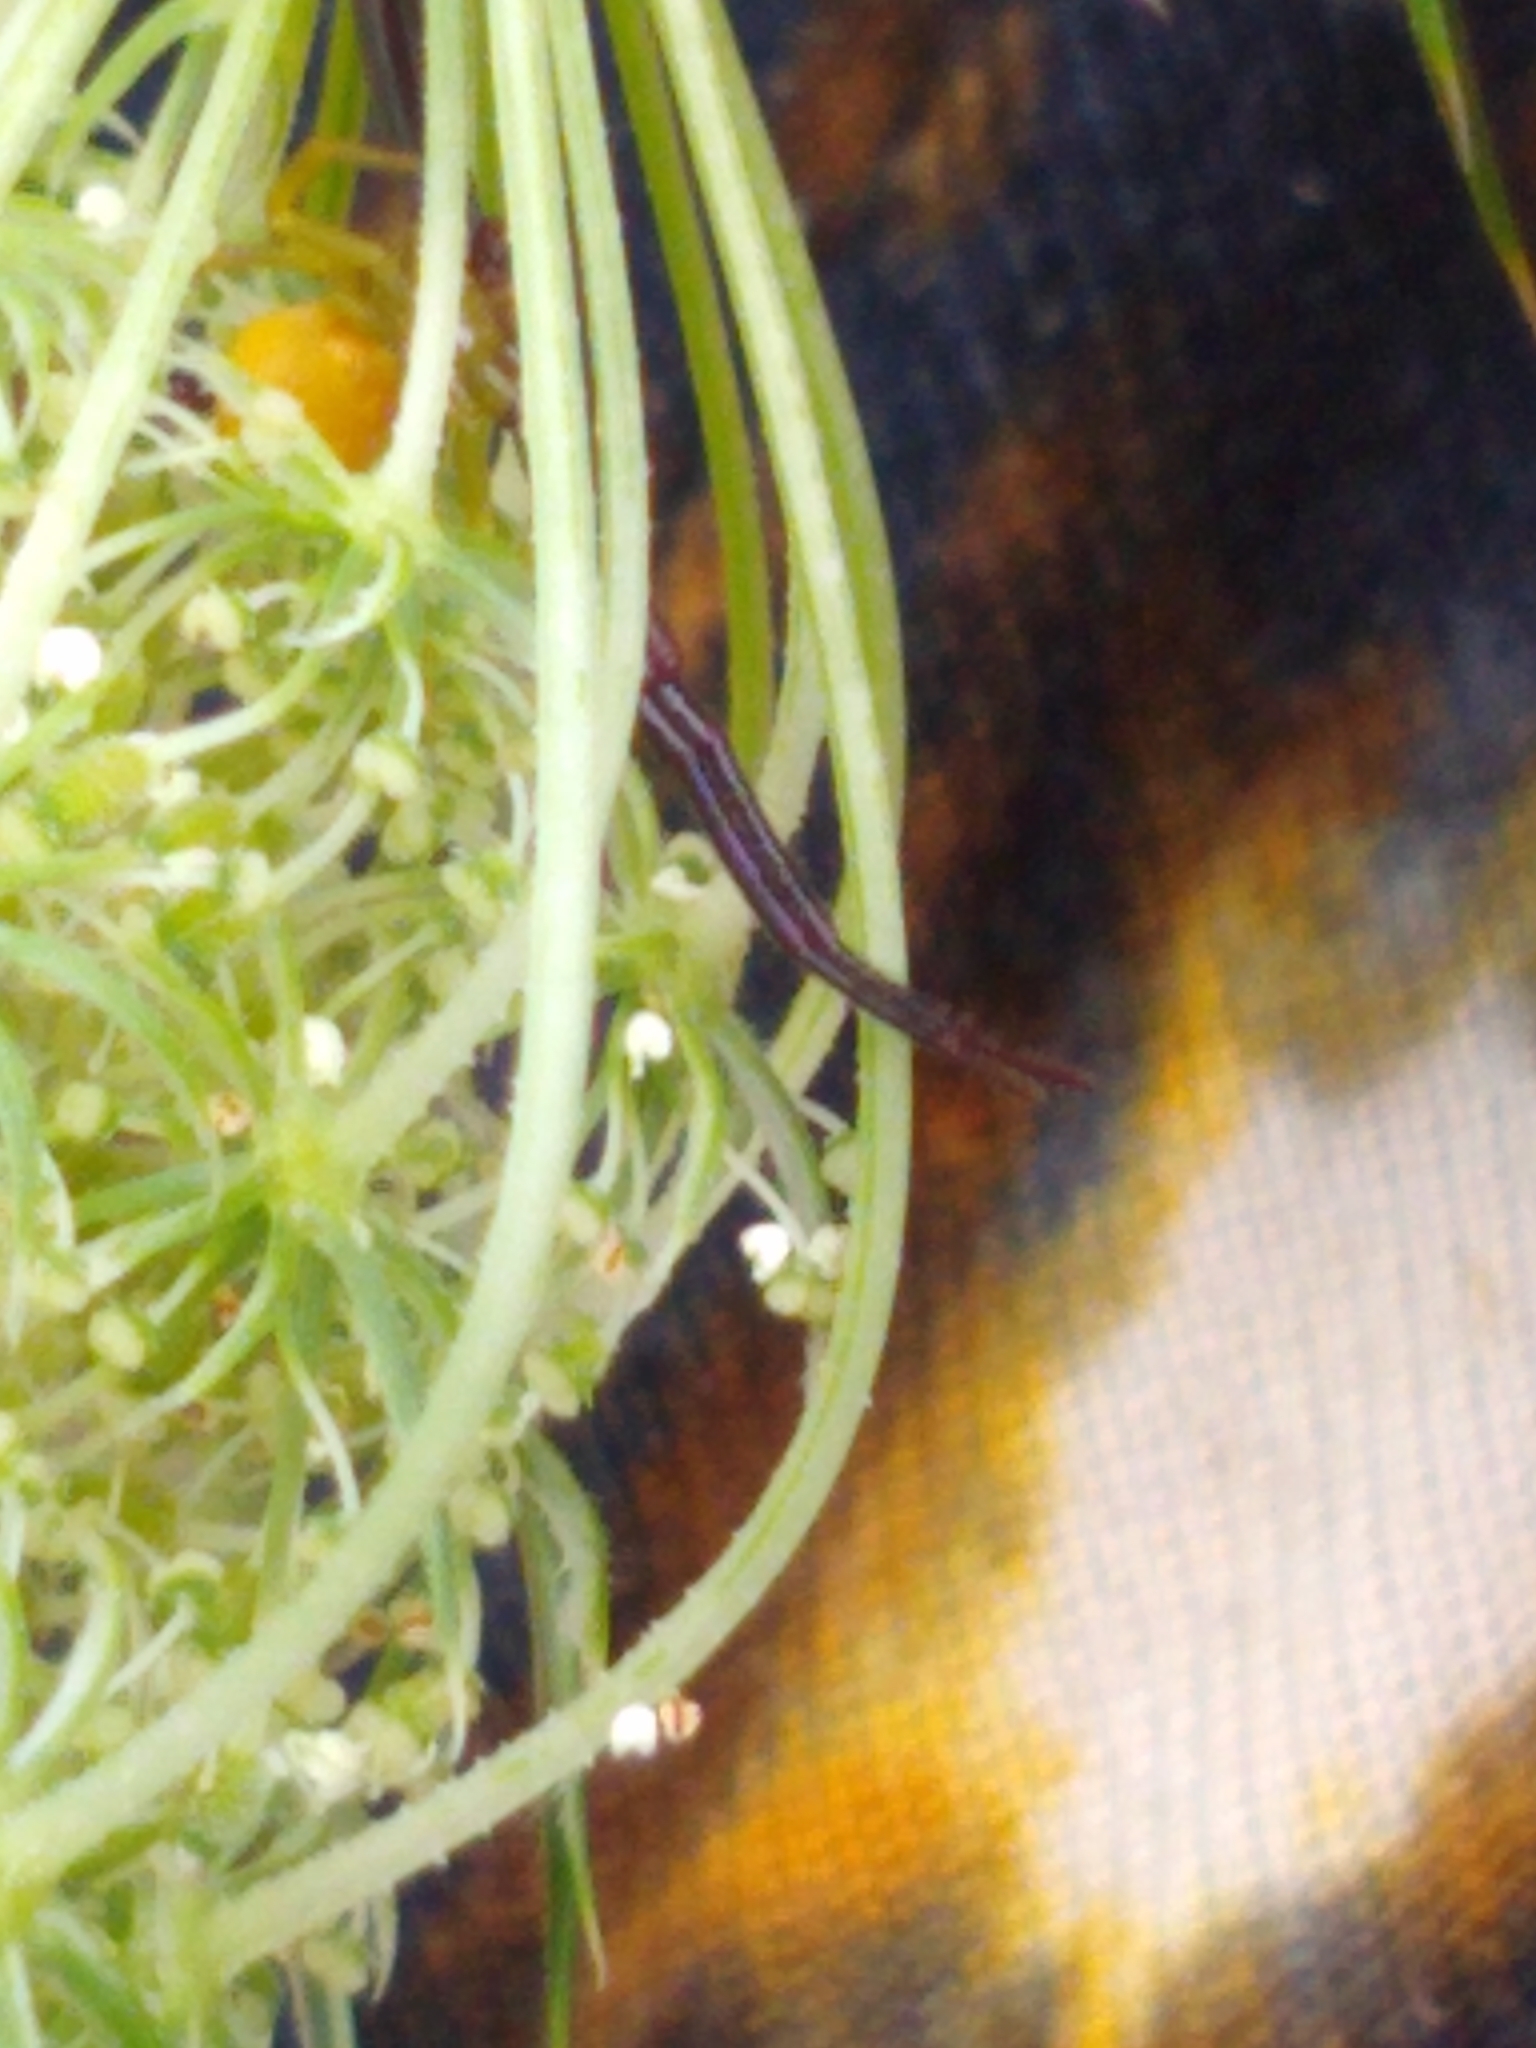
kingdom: Animalia
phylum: Arthropoda
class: Arachnida
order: Araneae
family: Thomisidae
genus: Misumenoides
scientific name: Misumenoides formosipes
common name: White-banded crab spider
